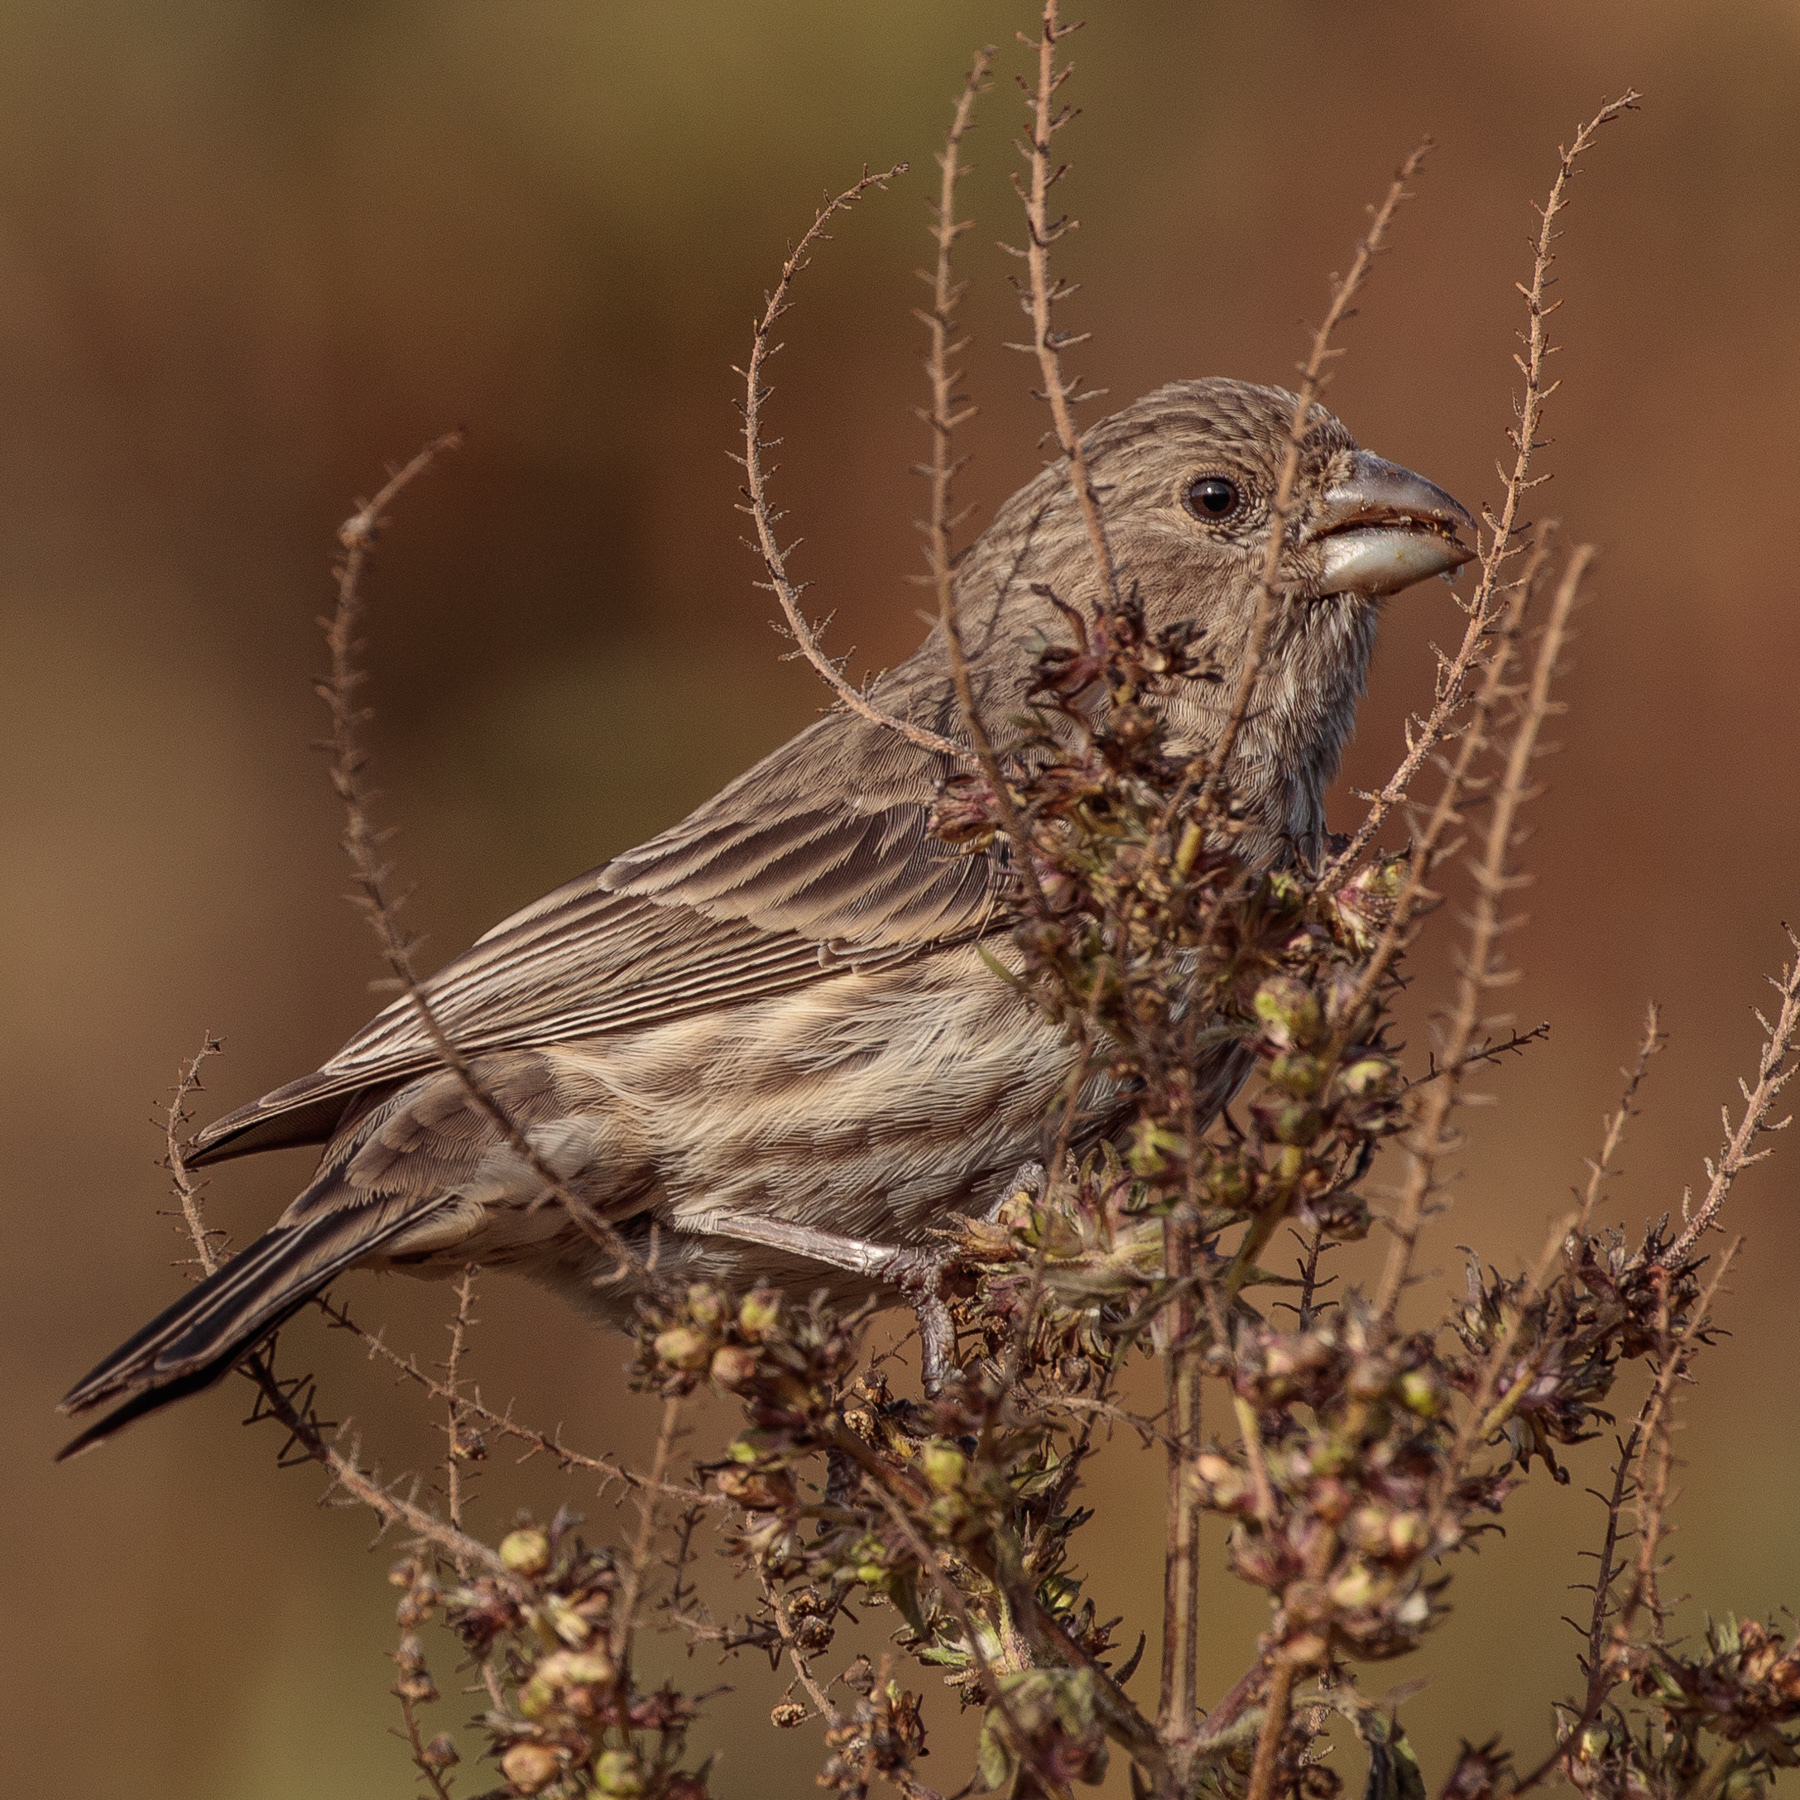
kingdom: Animalia
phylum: Chordata
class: Aves
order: Passeriformes
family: Fringillidae
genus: Haemorhous
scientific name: Haemorhous mexicanus
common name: House finch
